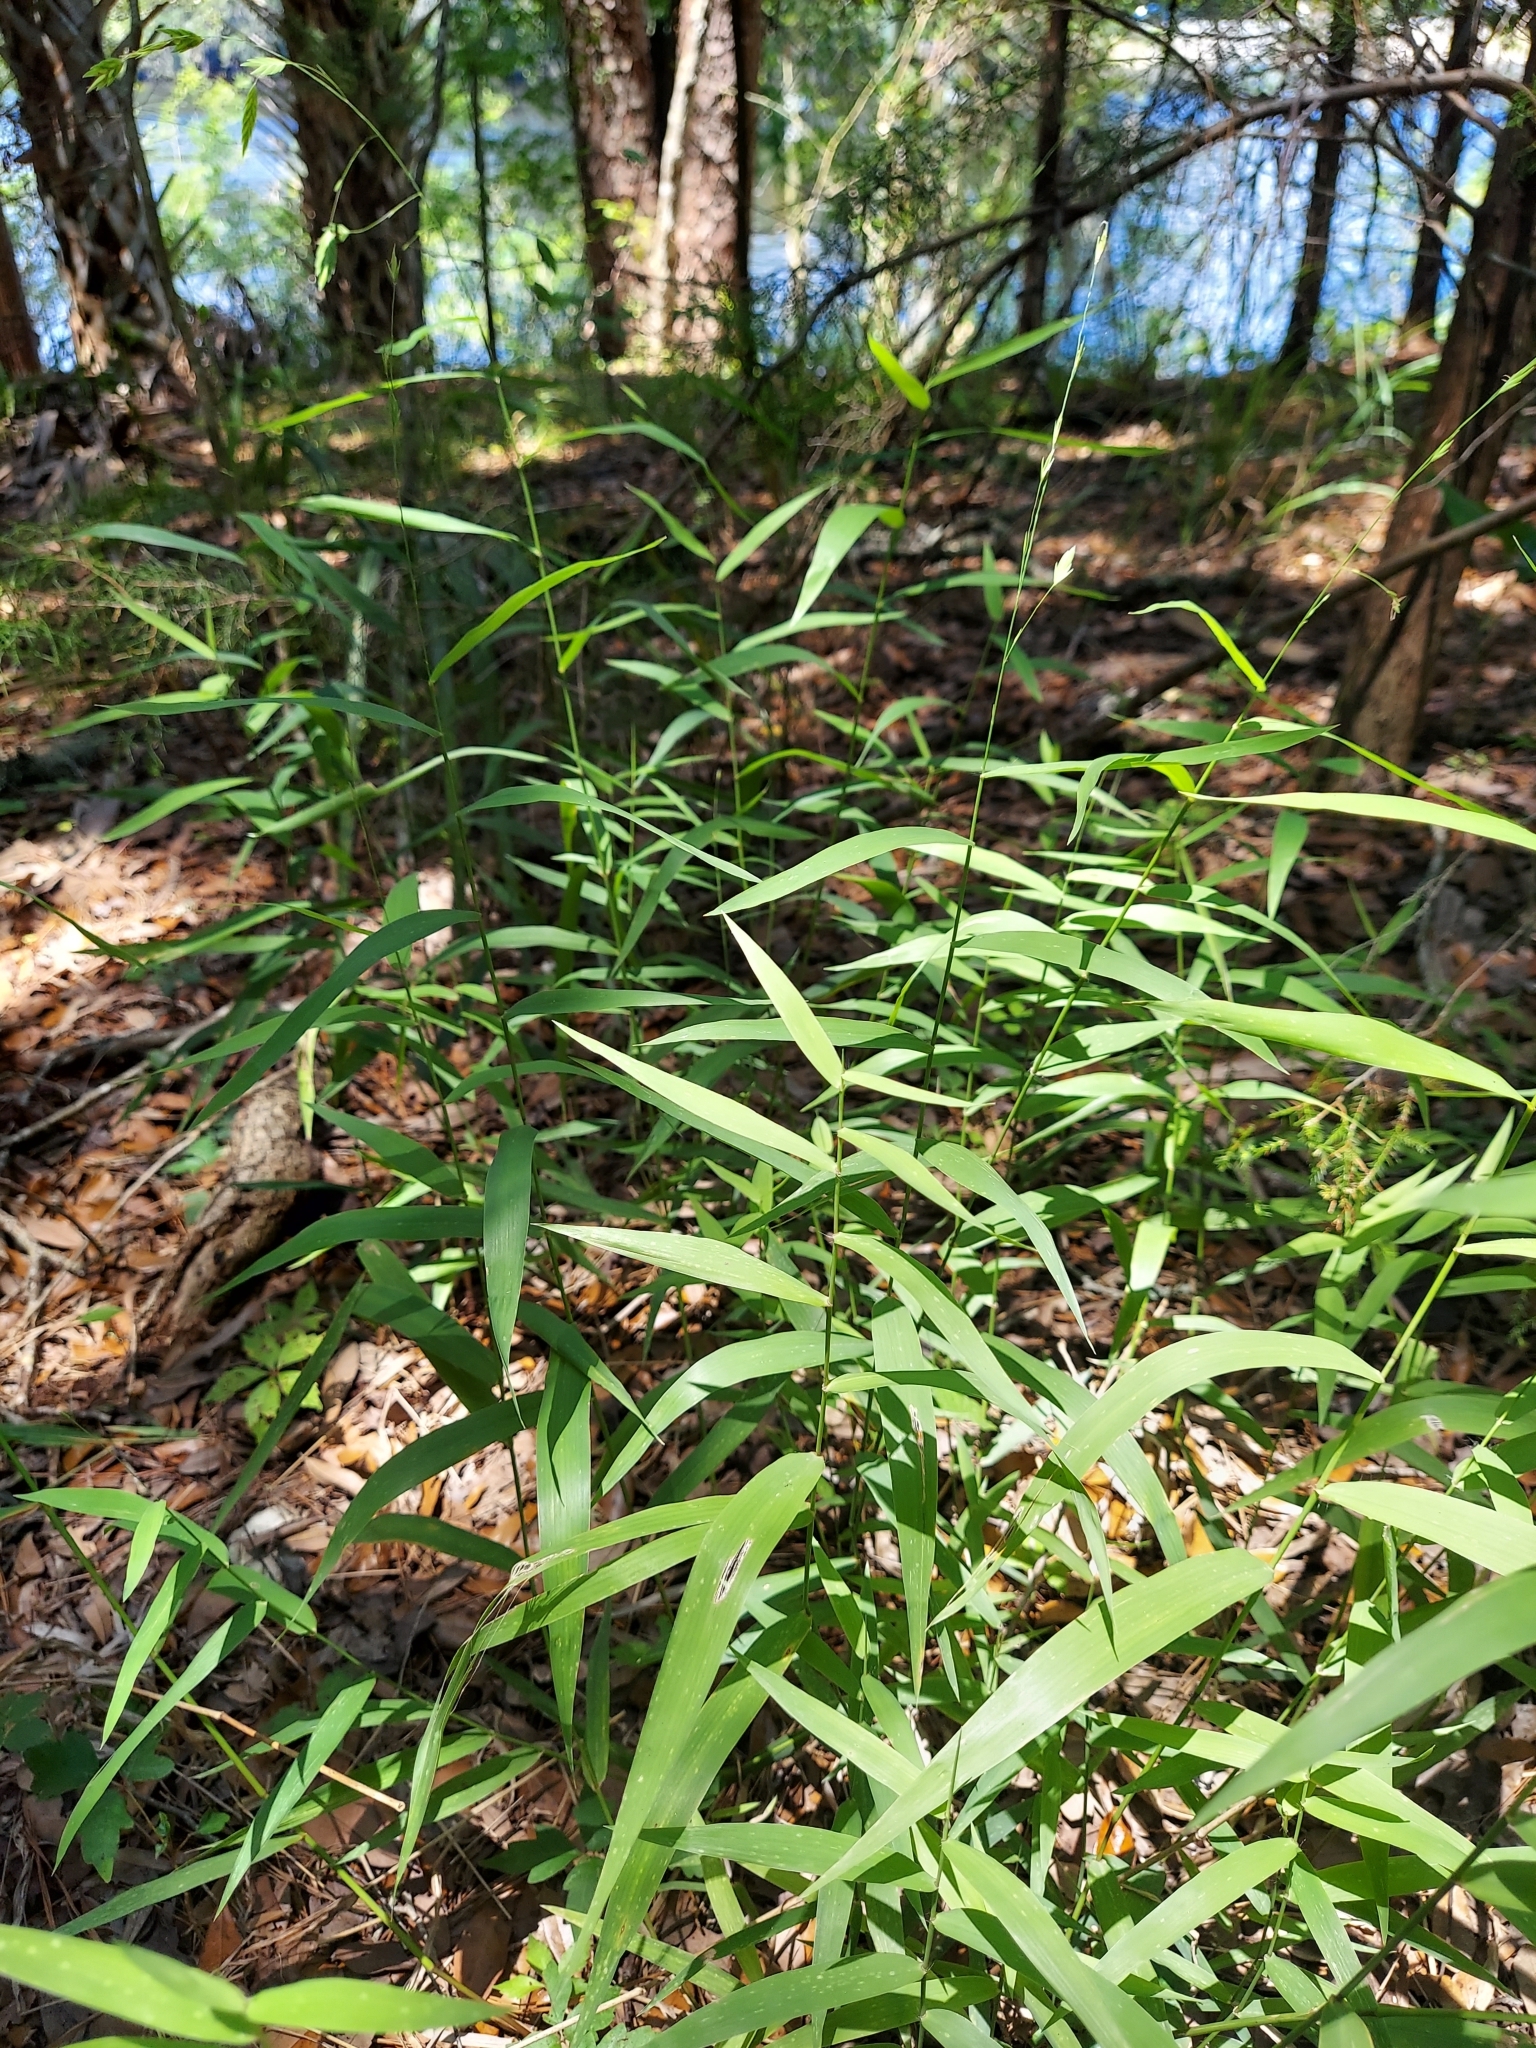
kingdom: Plantae
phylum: Tracheophyta
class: Liliopsida
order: Poales
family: Poaceae
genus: Chasmanthium
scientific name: Chasmanthium latifolium
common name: Broad-leaved chasmanthium
